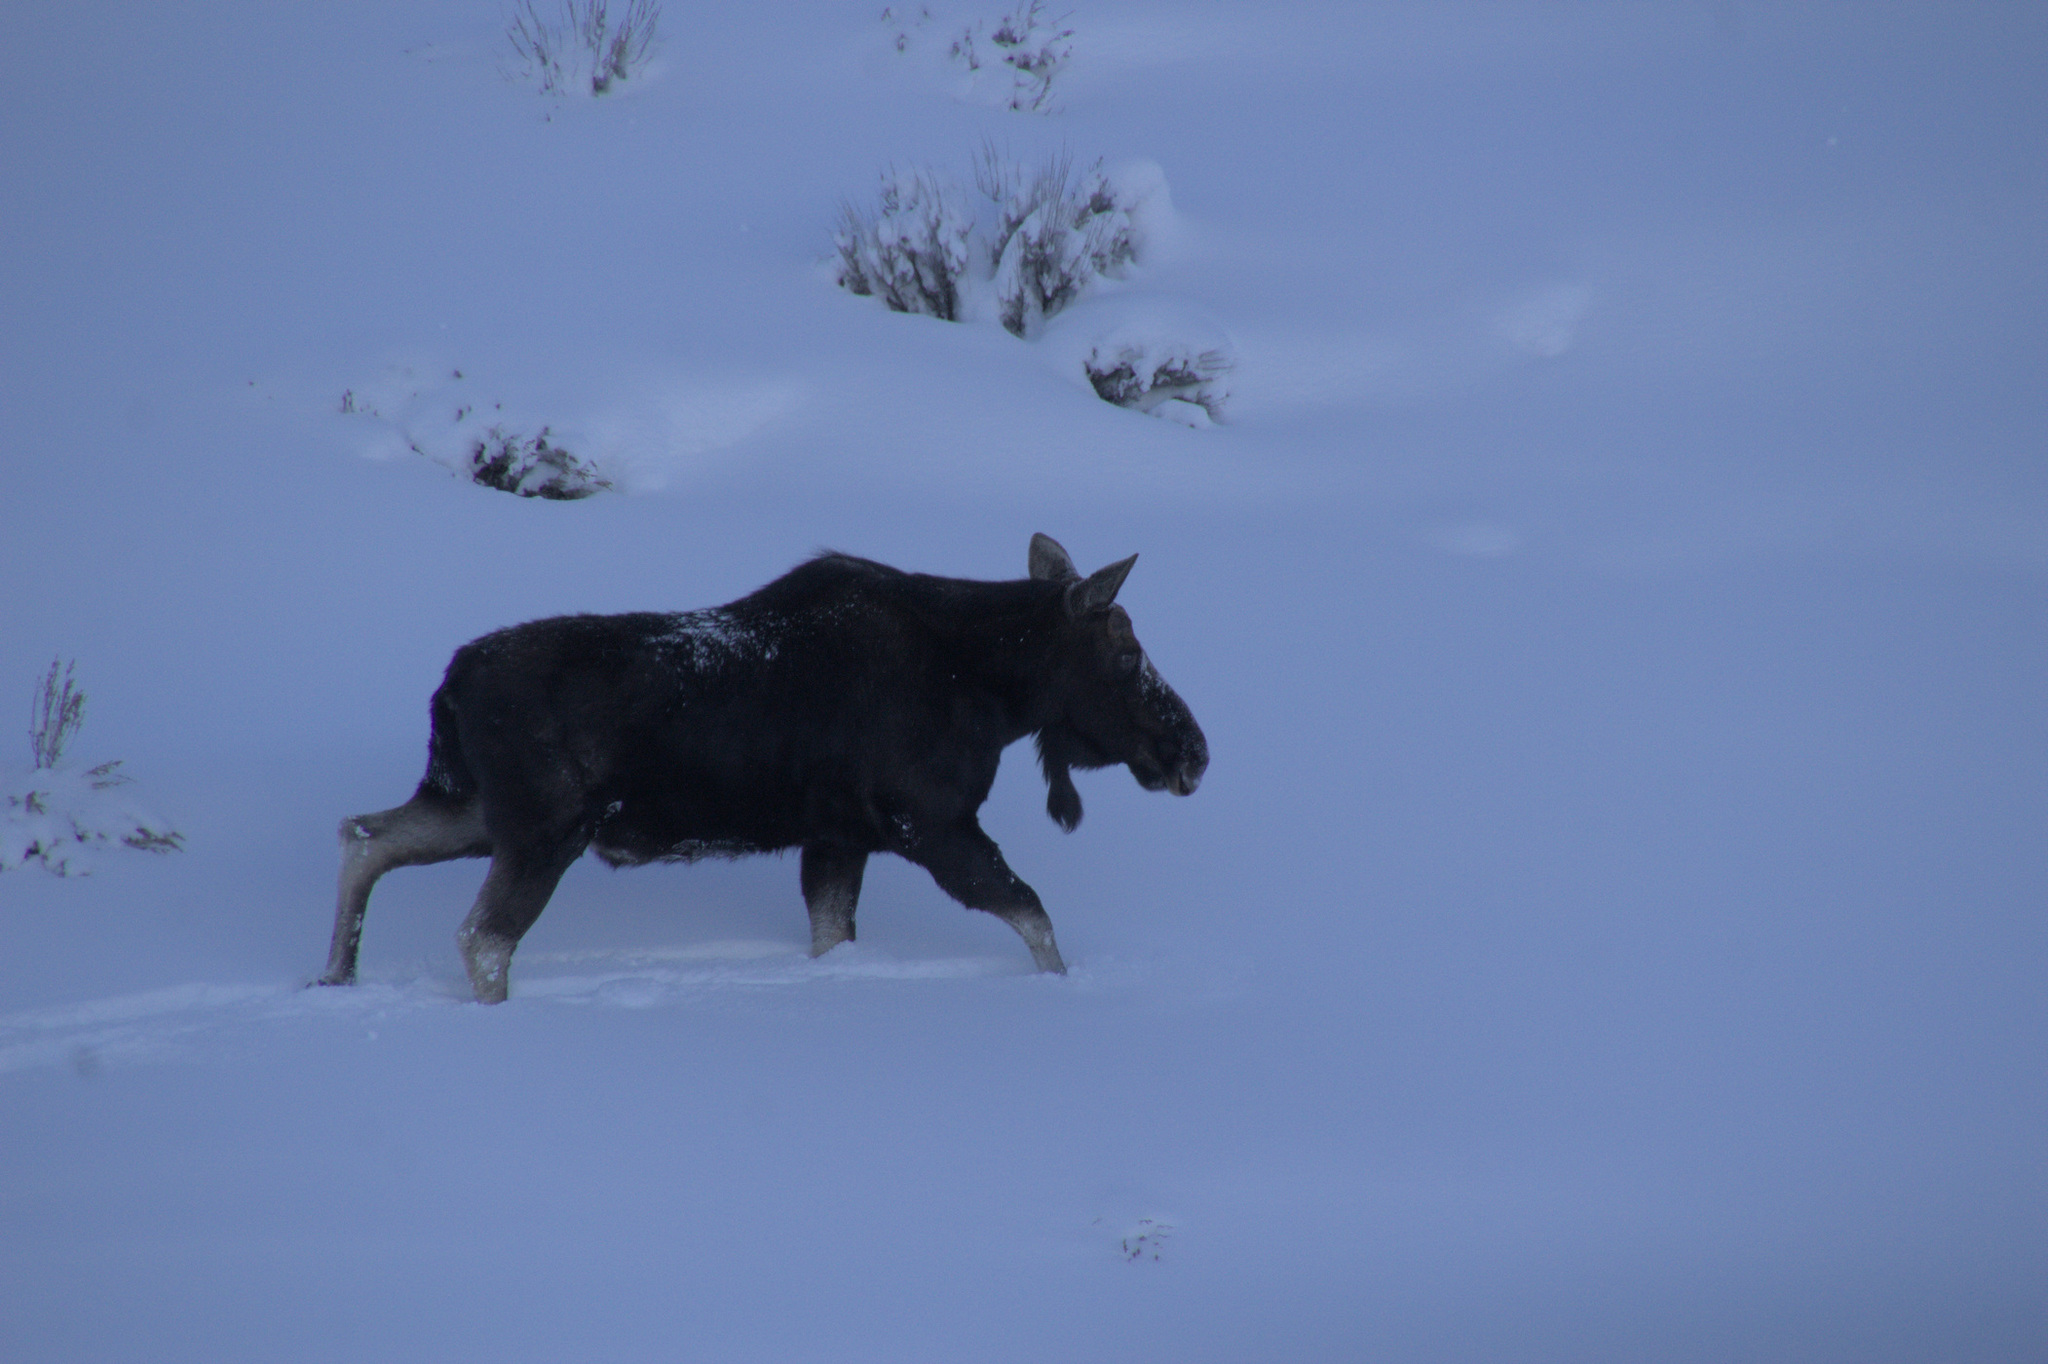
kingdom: Animalia
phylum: Chordata
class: Mammalia
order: Artiodactyla
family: Cervidae
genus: Alces
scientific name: Alces alces
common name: Moose
